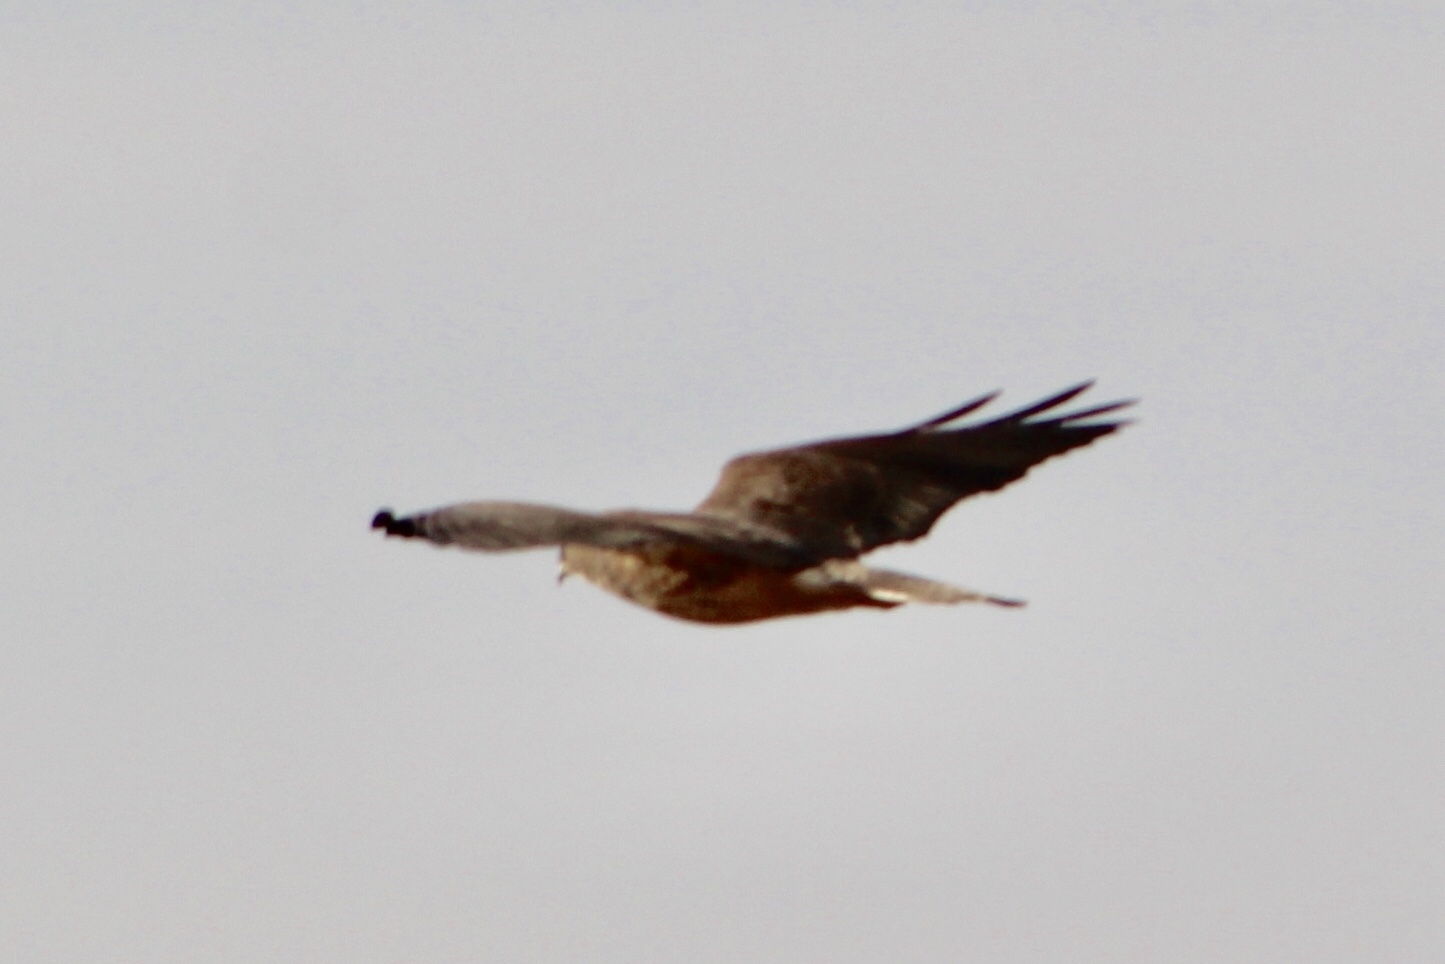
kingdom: Animalia
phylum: Chordata
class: Aves
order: Accipitriformes
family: Accipitridae
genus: Buteo
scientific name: Buteo swainsoni
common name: Swainson's hawk
